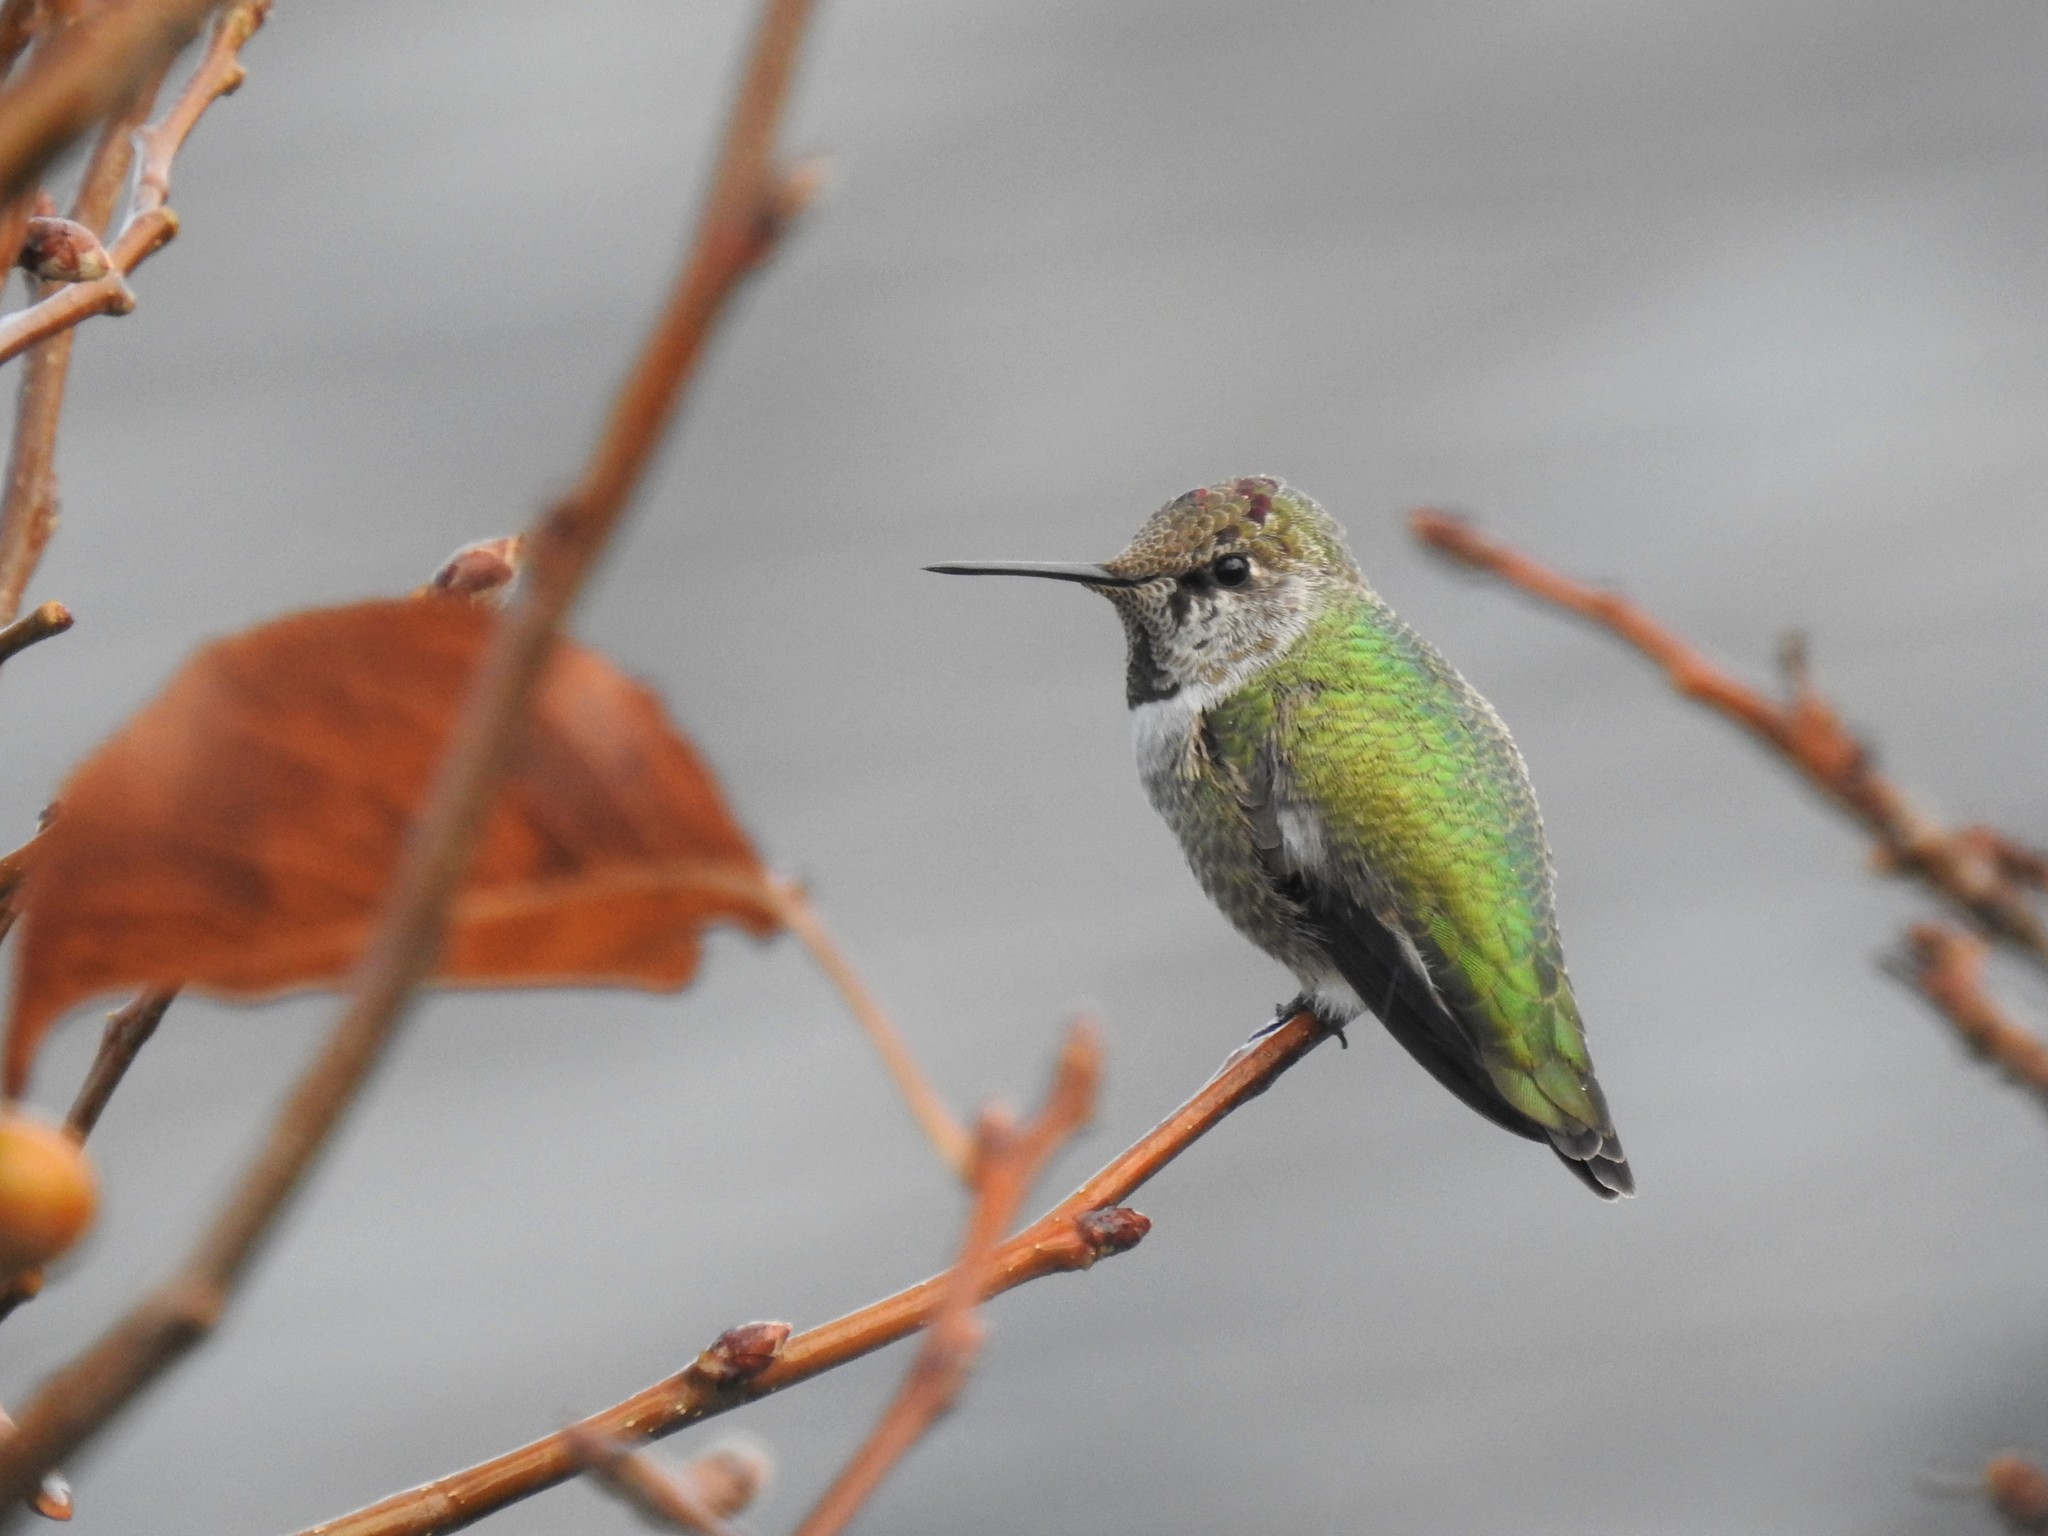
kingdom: Animalia
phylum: Chordata
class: Aves
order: Apodiformes
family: Trochilidae
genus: Calypte
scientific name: Calypte anna
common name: Anna's hummingbird
